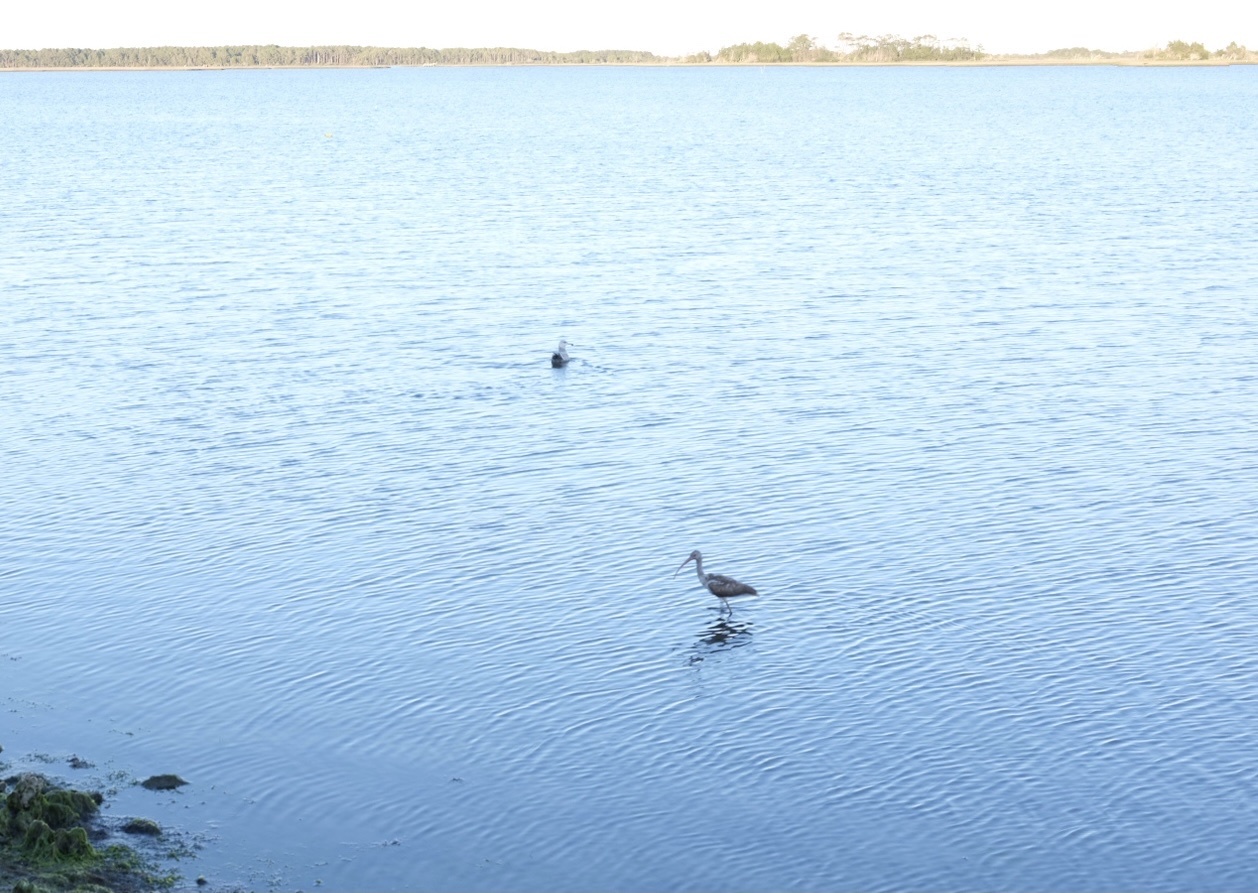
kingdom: Animalia
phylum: Chordata
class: Aves
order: Pelecaniformes
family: Threskiornithidae
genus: Eudocimus
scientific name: Eudocimus albus
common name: White ibis
